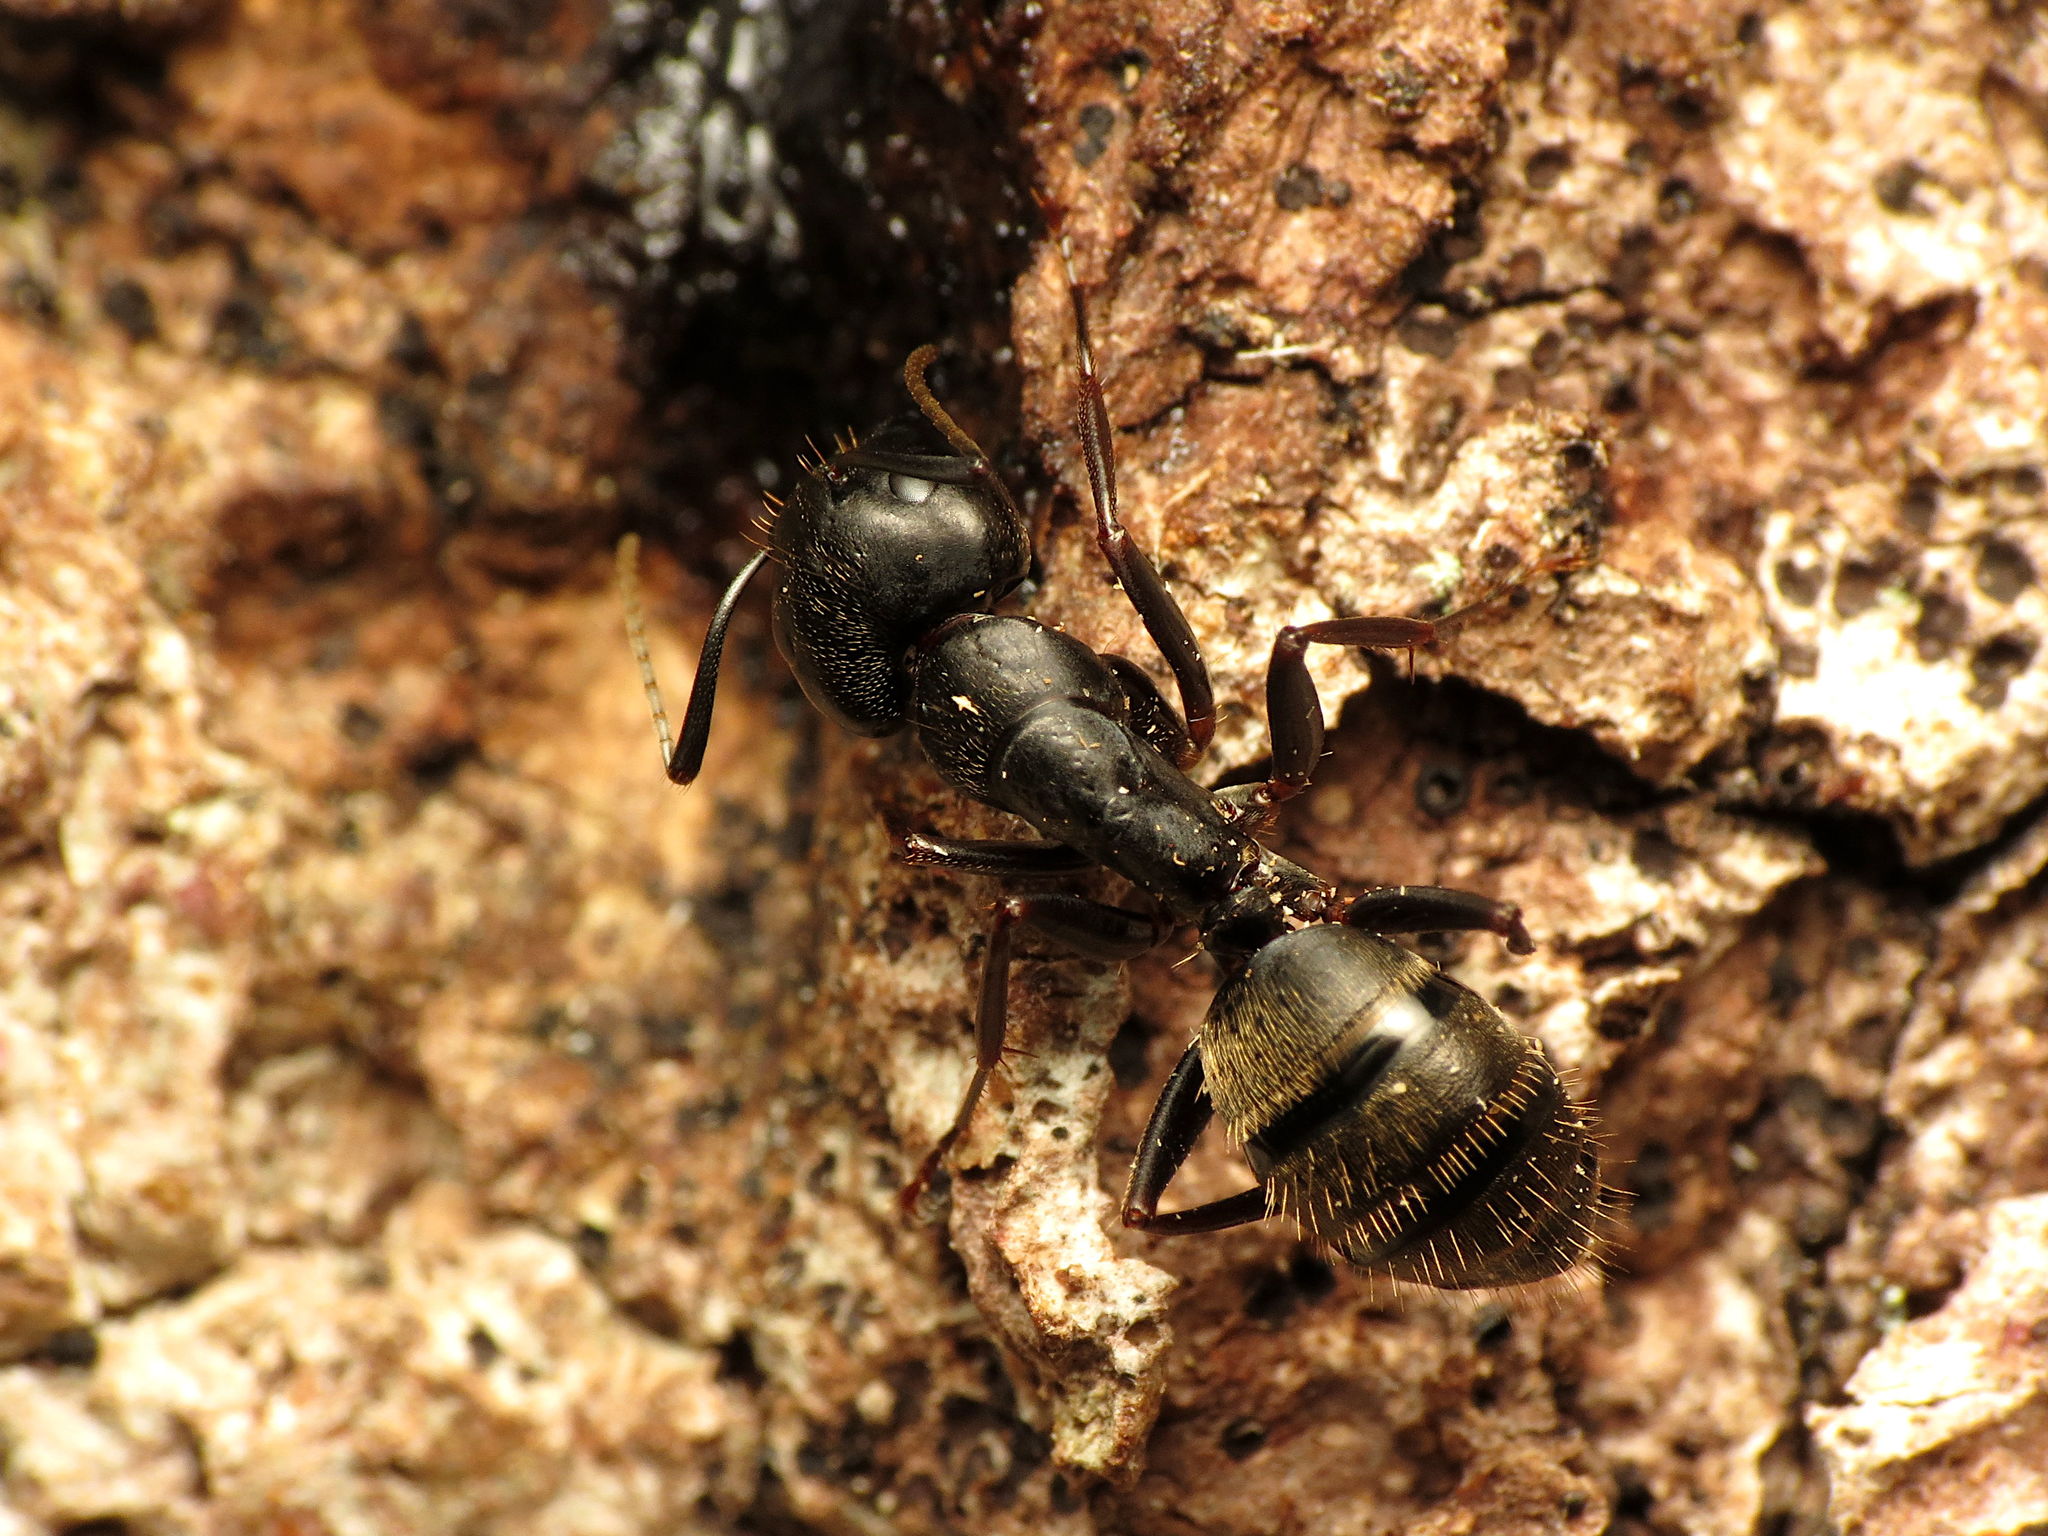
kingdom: Animalia
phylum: Arthropoda
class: Insecta
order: Hymenoptera
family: Formicidae
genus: Camponotus
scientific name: Camponotus pennsylvanicus
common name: Black carpenter ant
